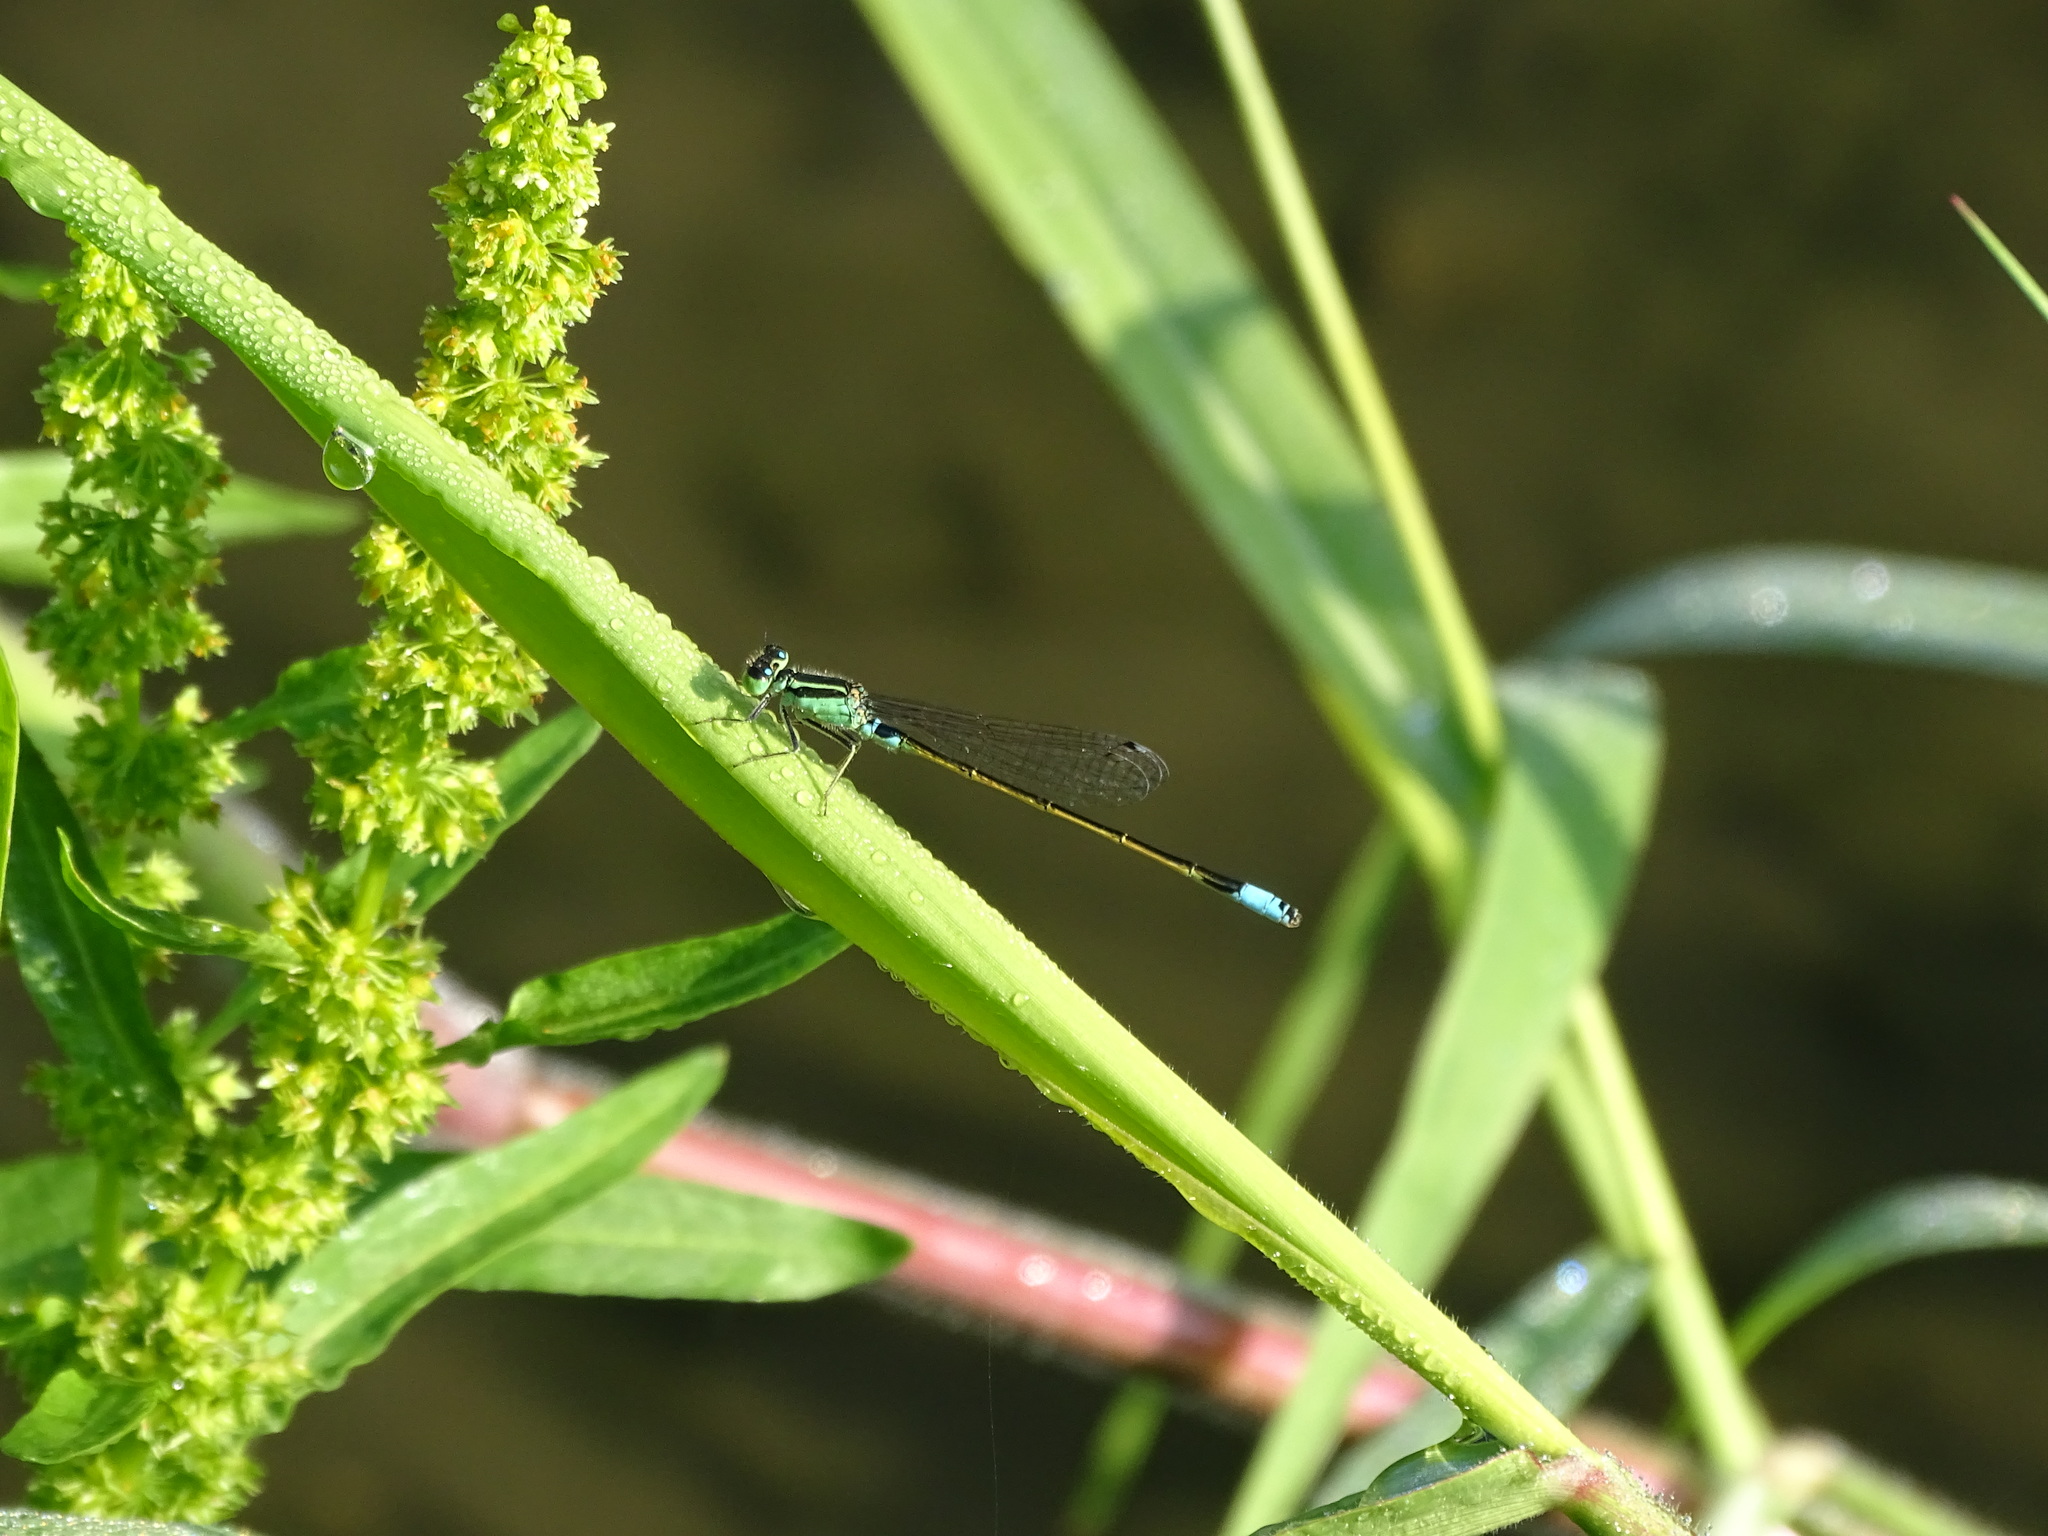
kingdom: Animalia
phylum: Arthropoda
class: Insecta
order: Odonata
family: Coenagrionidae
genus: Ischnura
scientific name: Ischnura senegalensis
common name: Tropical bluetail
